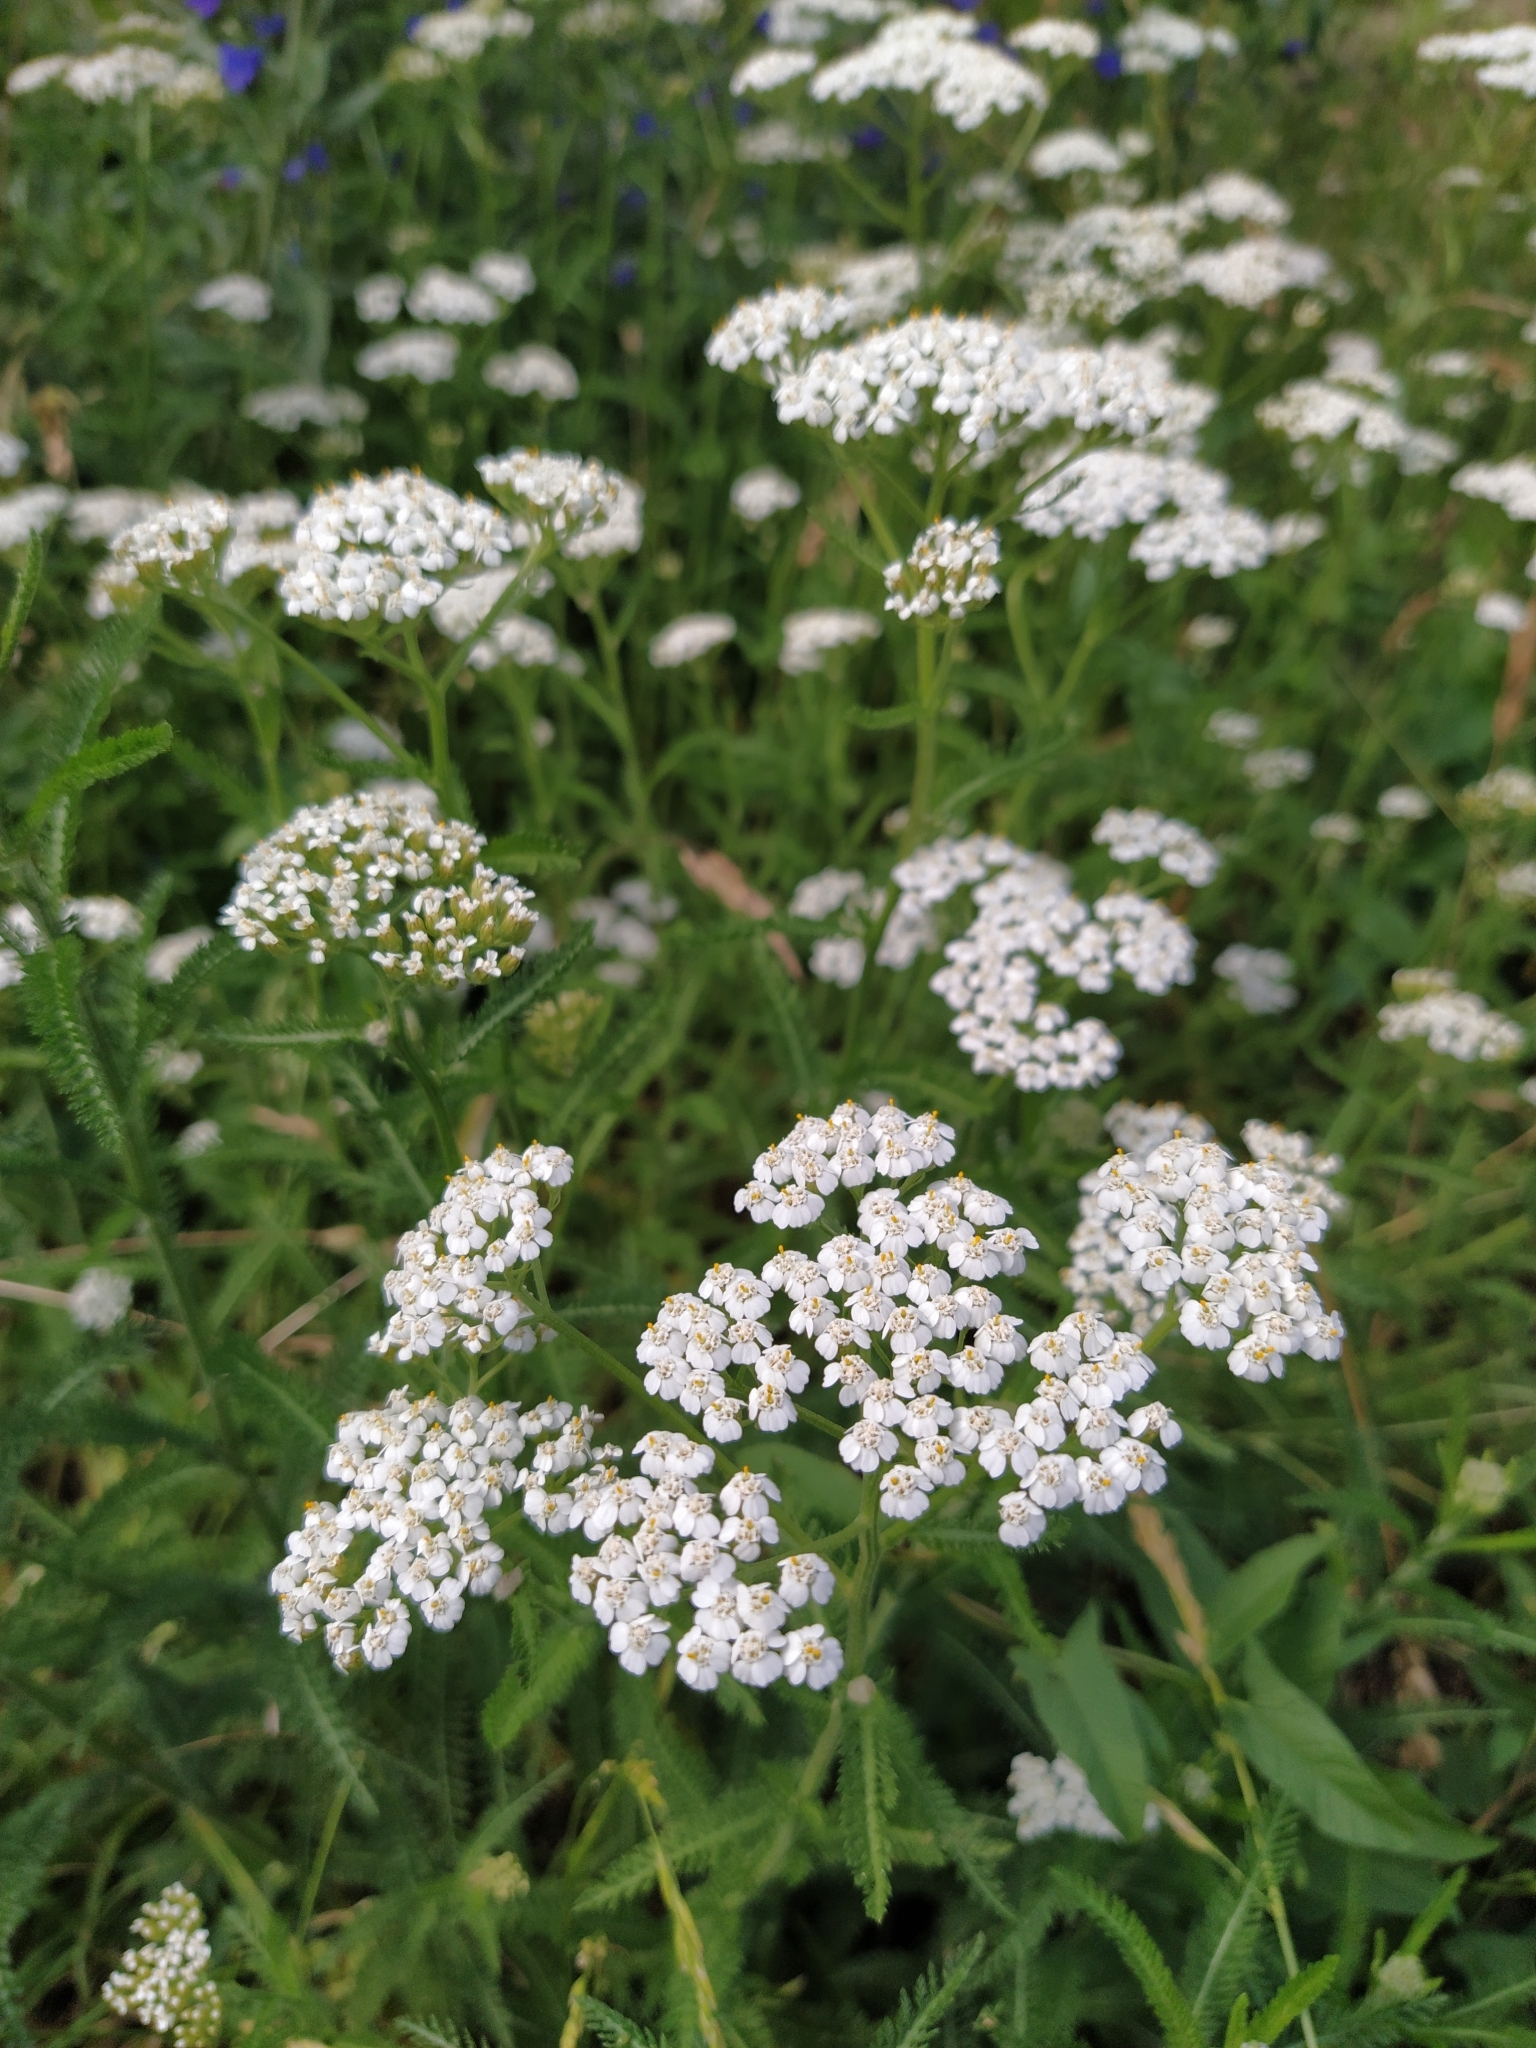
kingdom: Plantae
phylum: Tracheophyta
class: Magnoliopsida
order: Asterales
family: Asteraceae
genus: Achillea
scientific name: Achillea millefolium
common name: Yarrow
